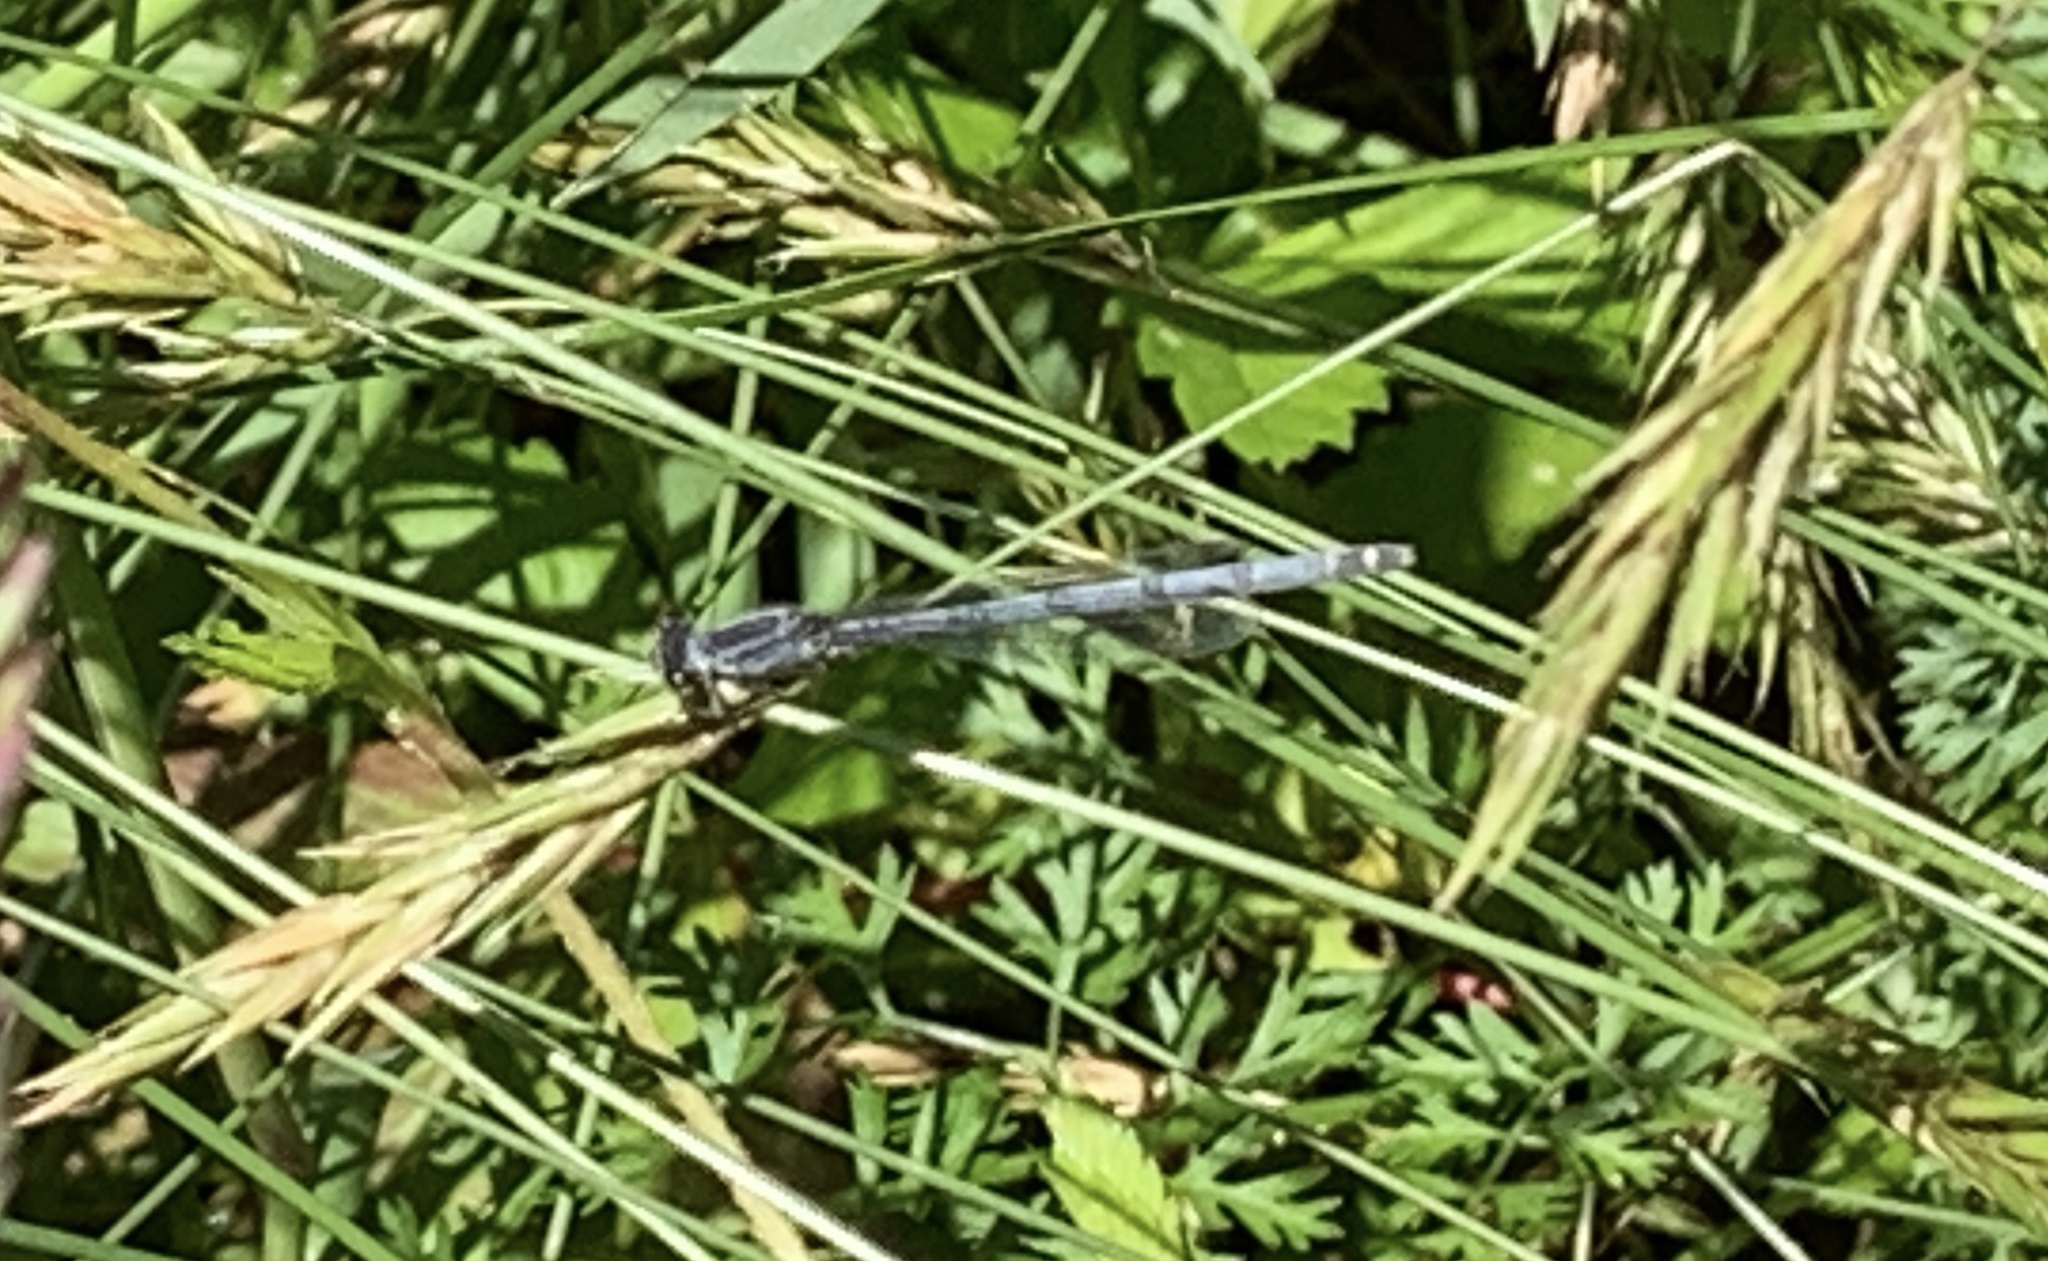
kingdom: Animalia
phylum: Arthropoda
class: Insecta
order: Odonata
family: Coenagrionidae
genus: Ischnura
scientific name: Ischnura verticalis
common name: Eastern forktail
